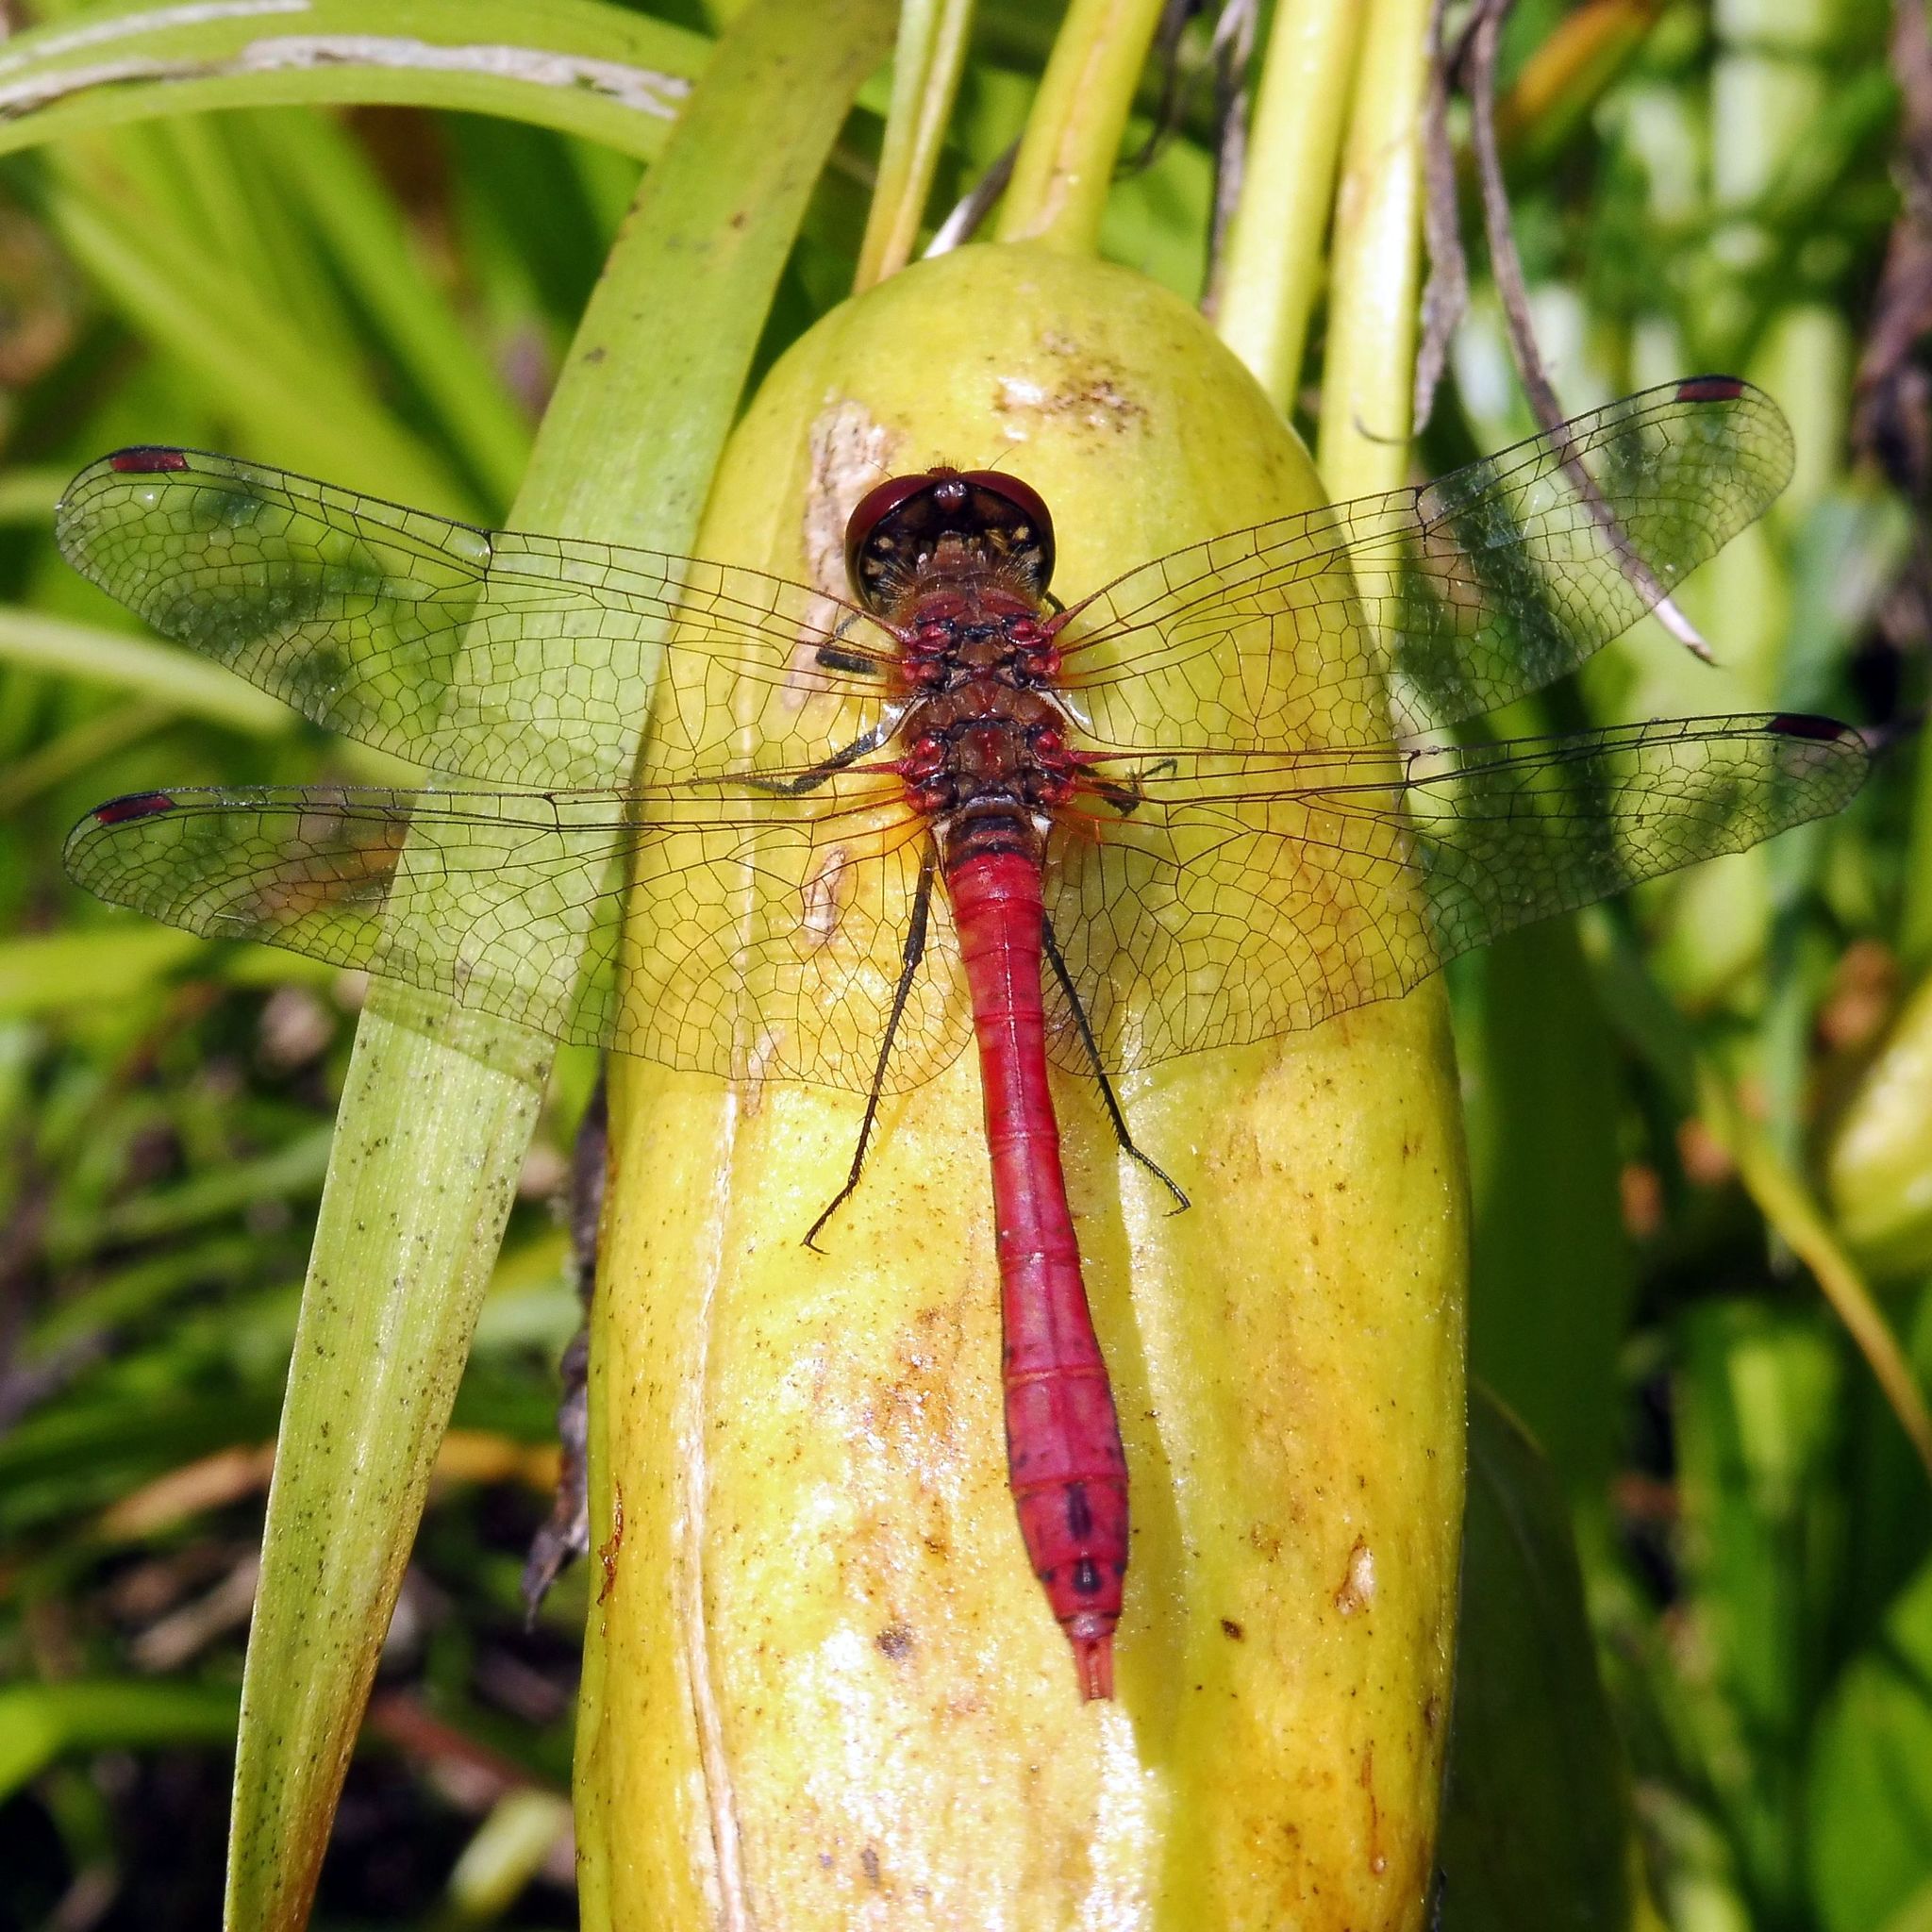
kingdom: Animalia
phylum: Arthropoda
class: Insecta
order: Odonata
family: Libellulidae
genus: Sympetrum
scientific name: Sympetrum sanguineum
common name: Ruddy darter
